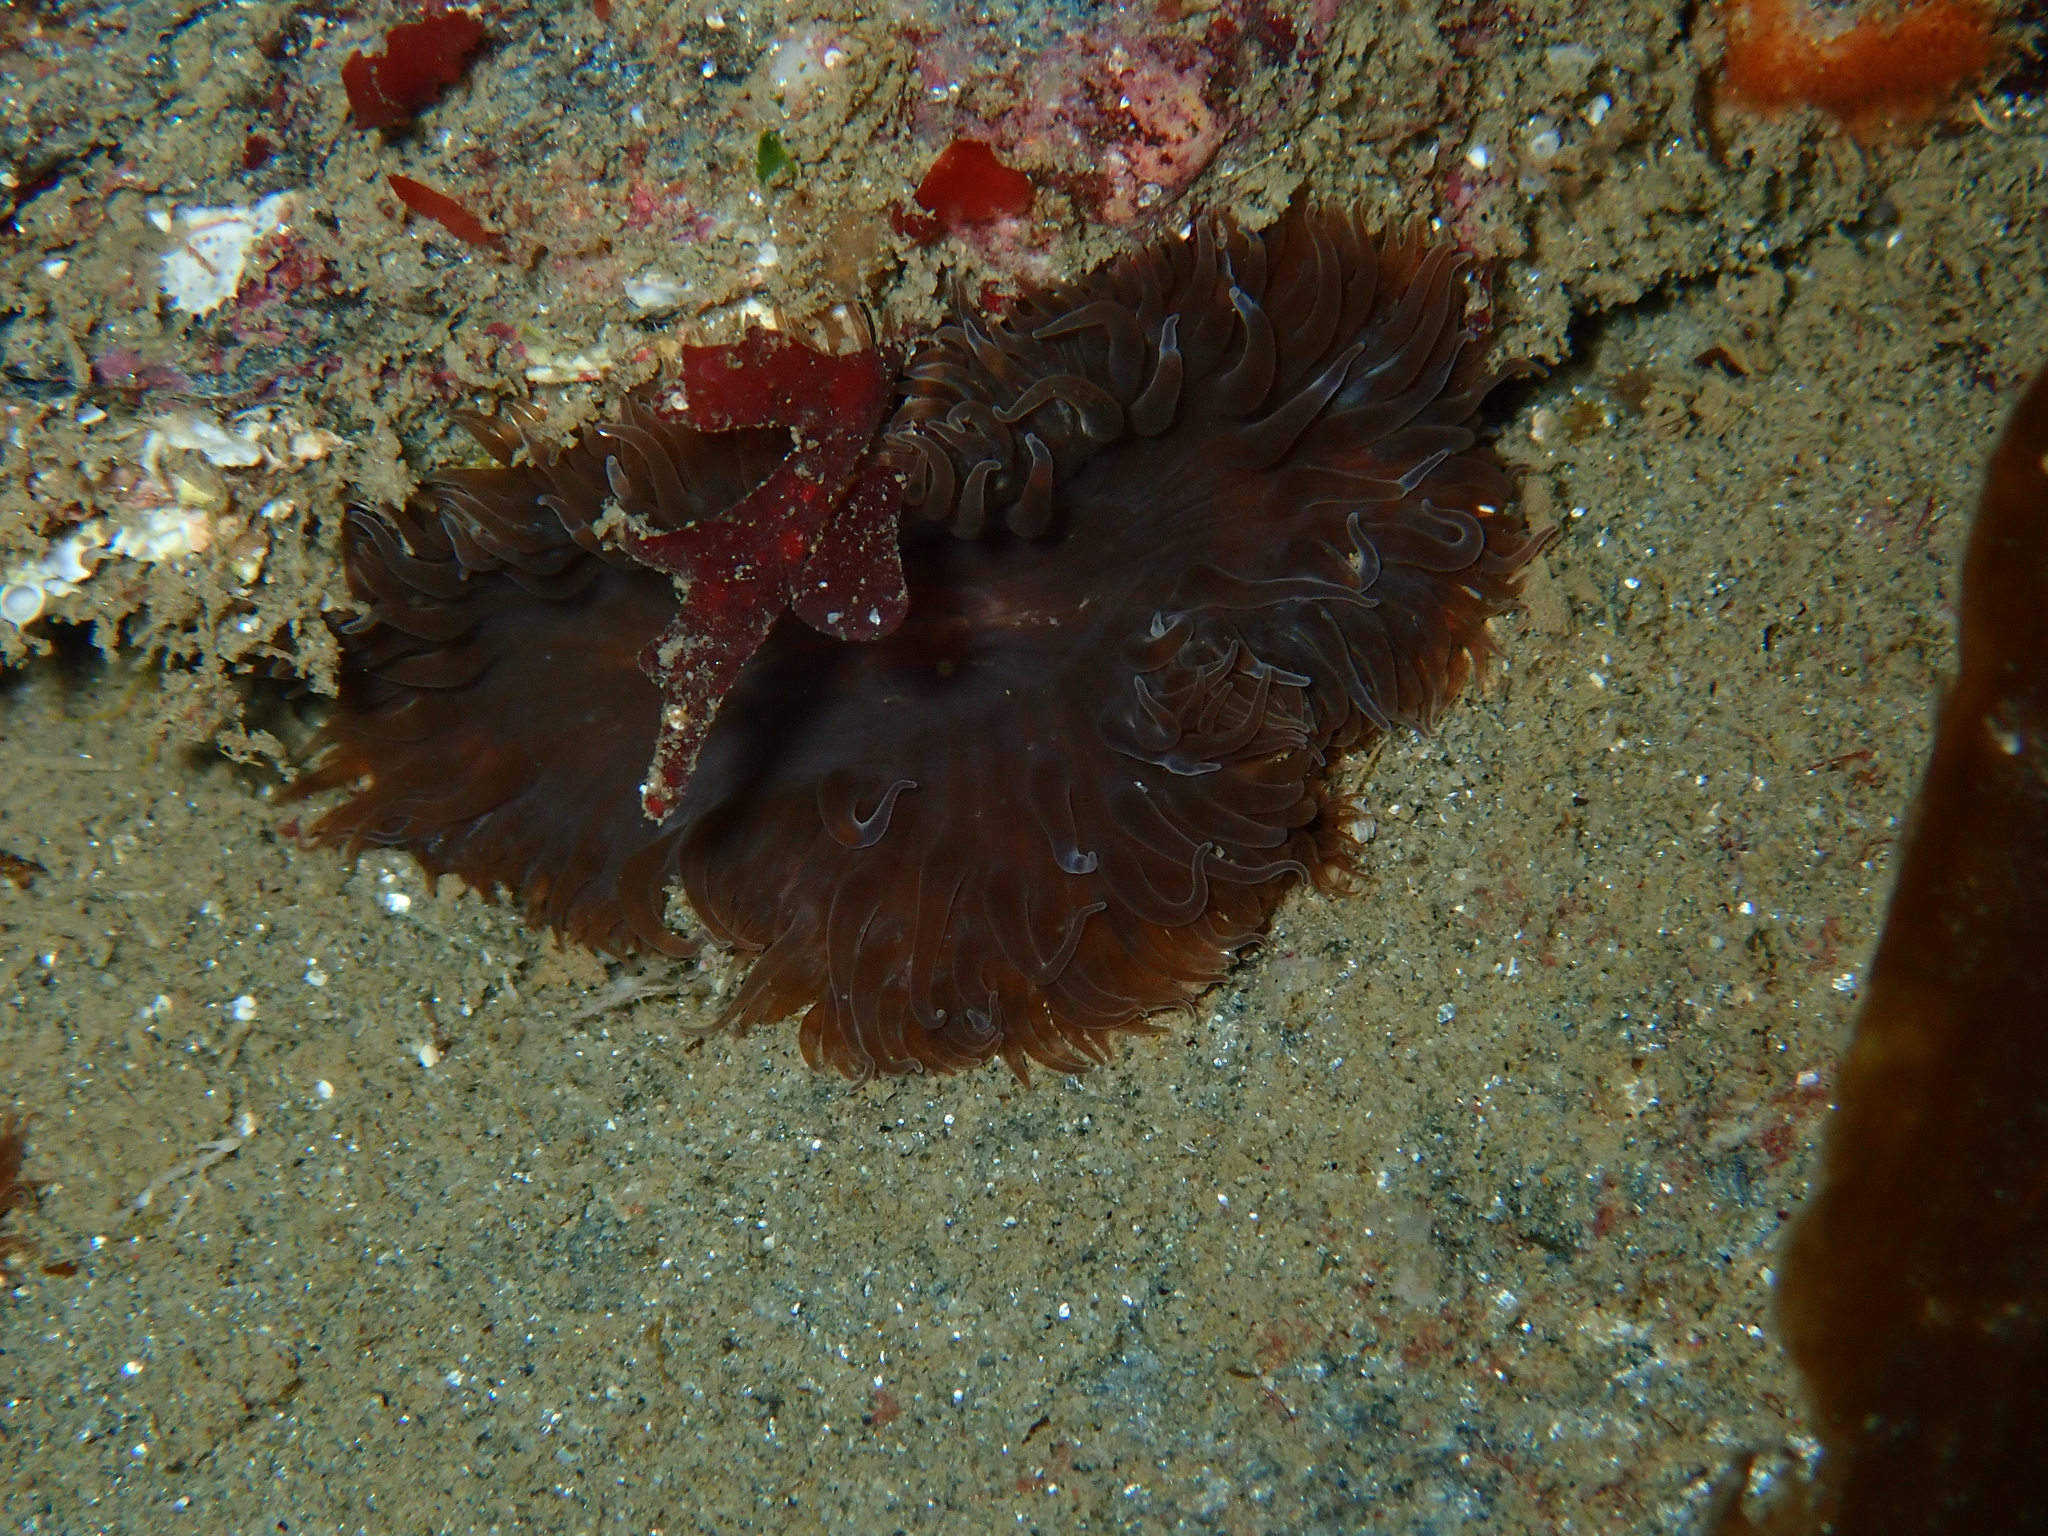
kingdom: Animalia
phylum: Cnidaria
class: Anthozoa
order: Actiniaria
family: Sagartiidae
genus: Cereus
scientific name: Cereus pedunculatus
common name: Daisy anemone
